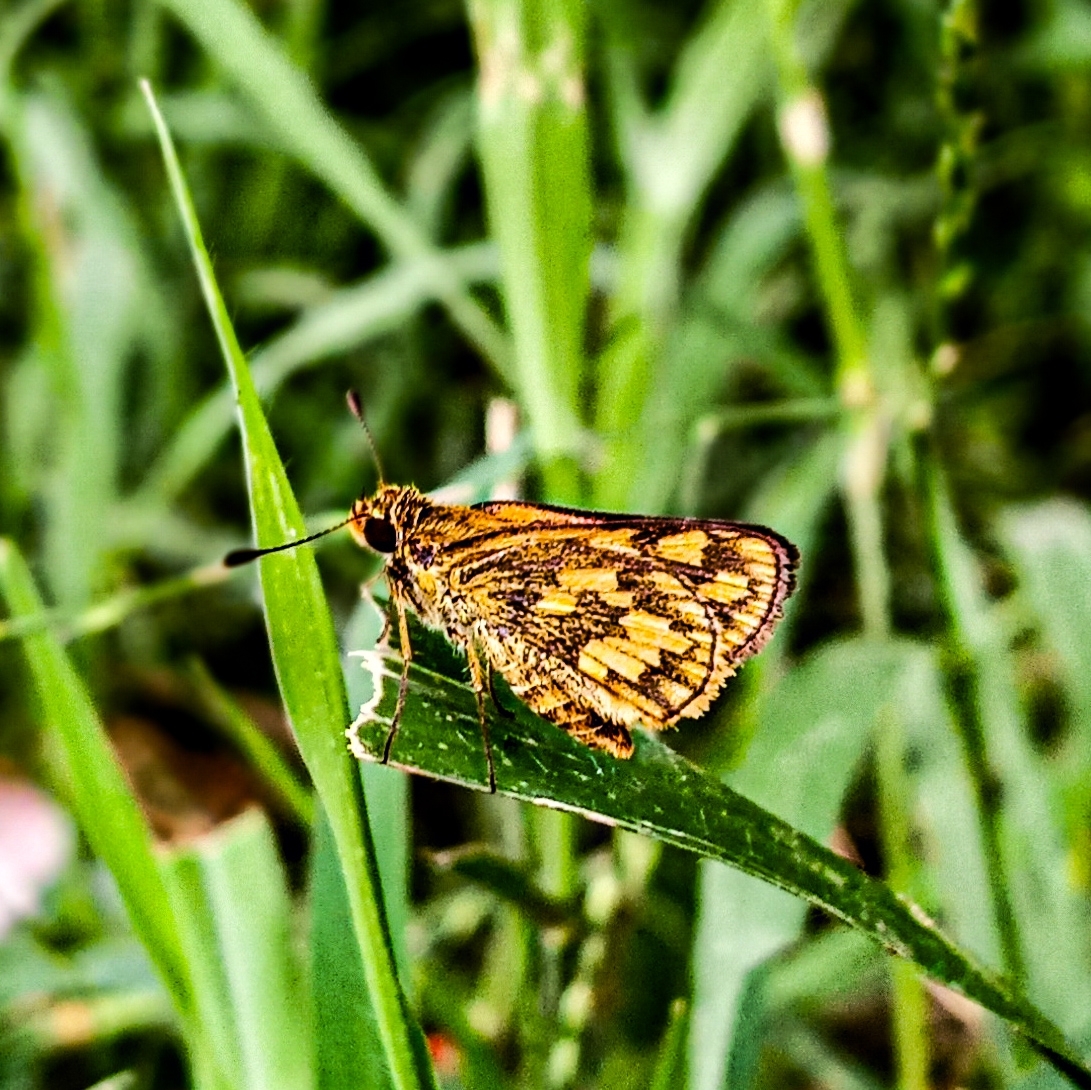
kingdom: Animalia
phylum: Arthropoda
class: Insecta
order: Lepidoptera
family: Hesperiidae
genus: Taractrocera
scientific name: Taractrocera
